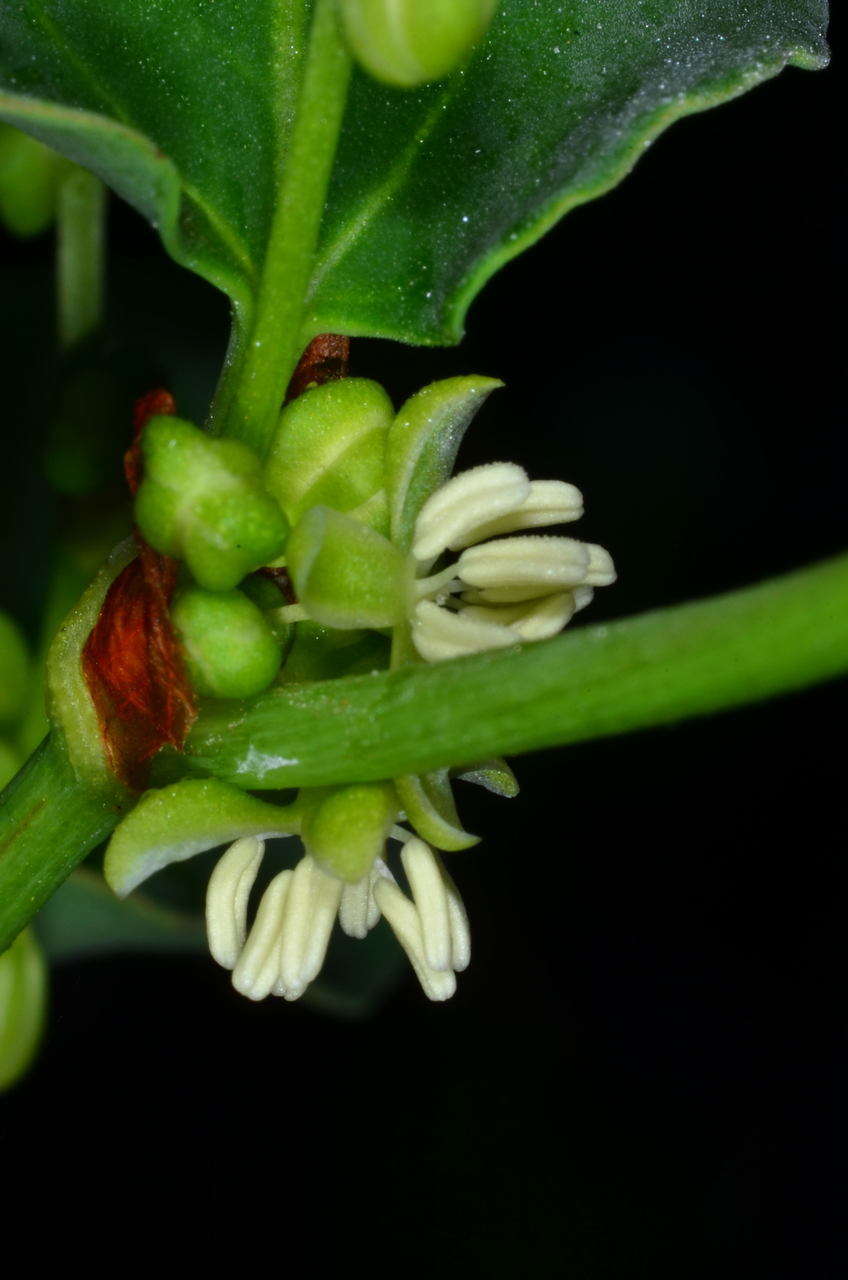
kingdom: Plantae
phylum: Tracheophyta
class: Magnoliopsida
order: Caryophyllales
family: Polygonaceae
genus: Muehlenbeckia
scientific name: Muehlenbeckia rhyticarya
